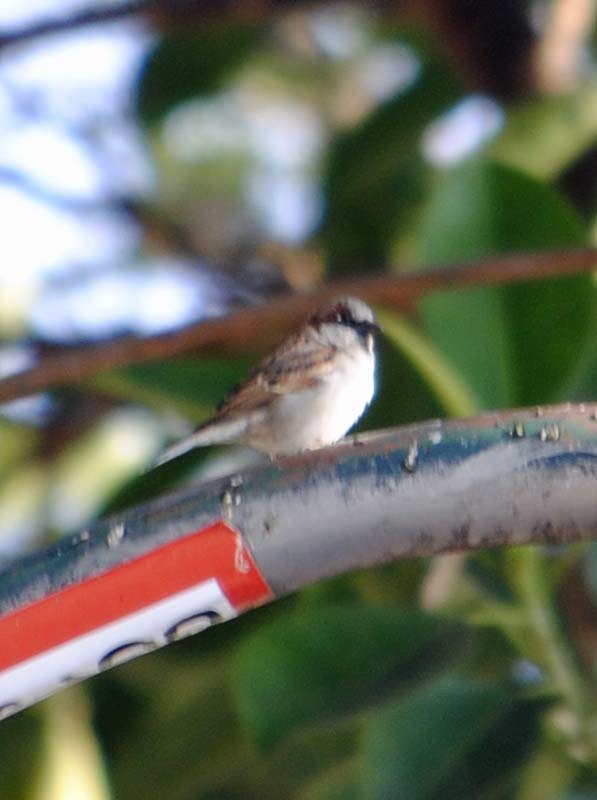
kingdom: Animalia
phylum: Chordata
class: Aves
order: Passeriformes
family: Passeridae
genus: Passer
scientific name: Passer domesticus
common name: House sparrow
